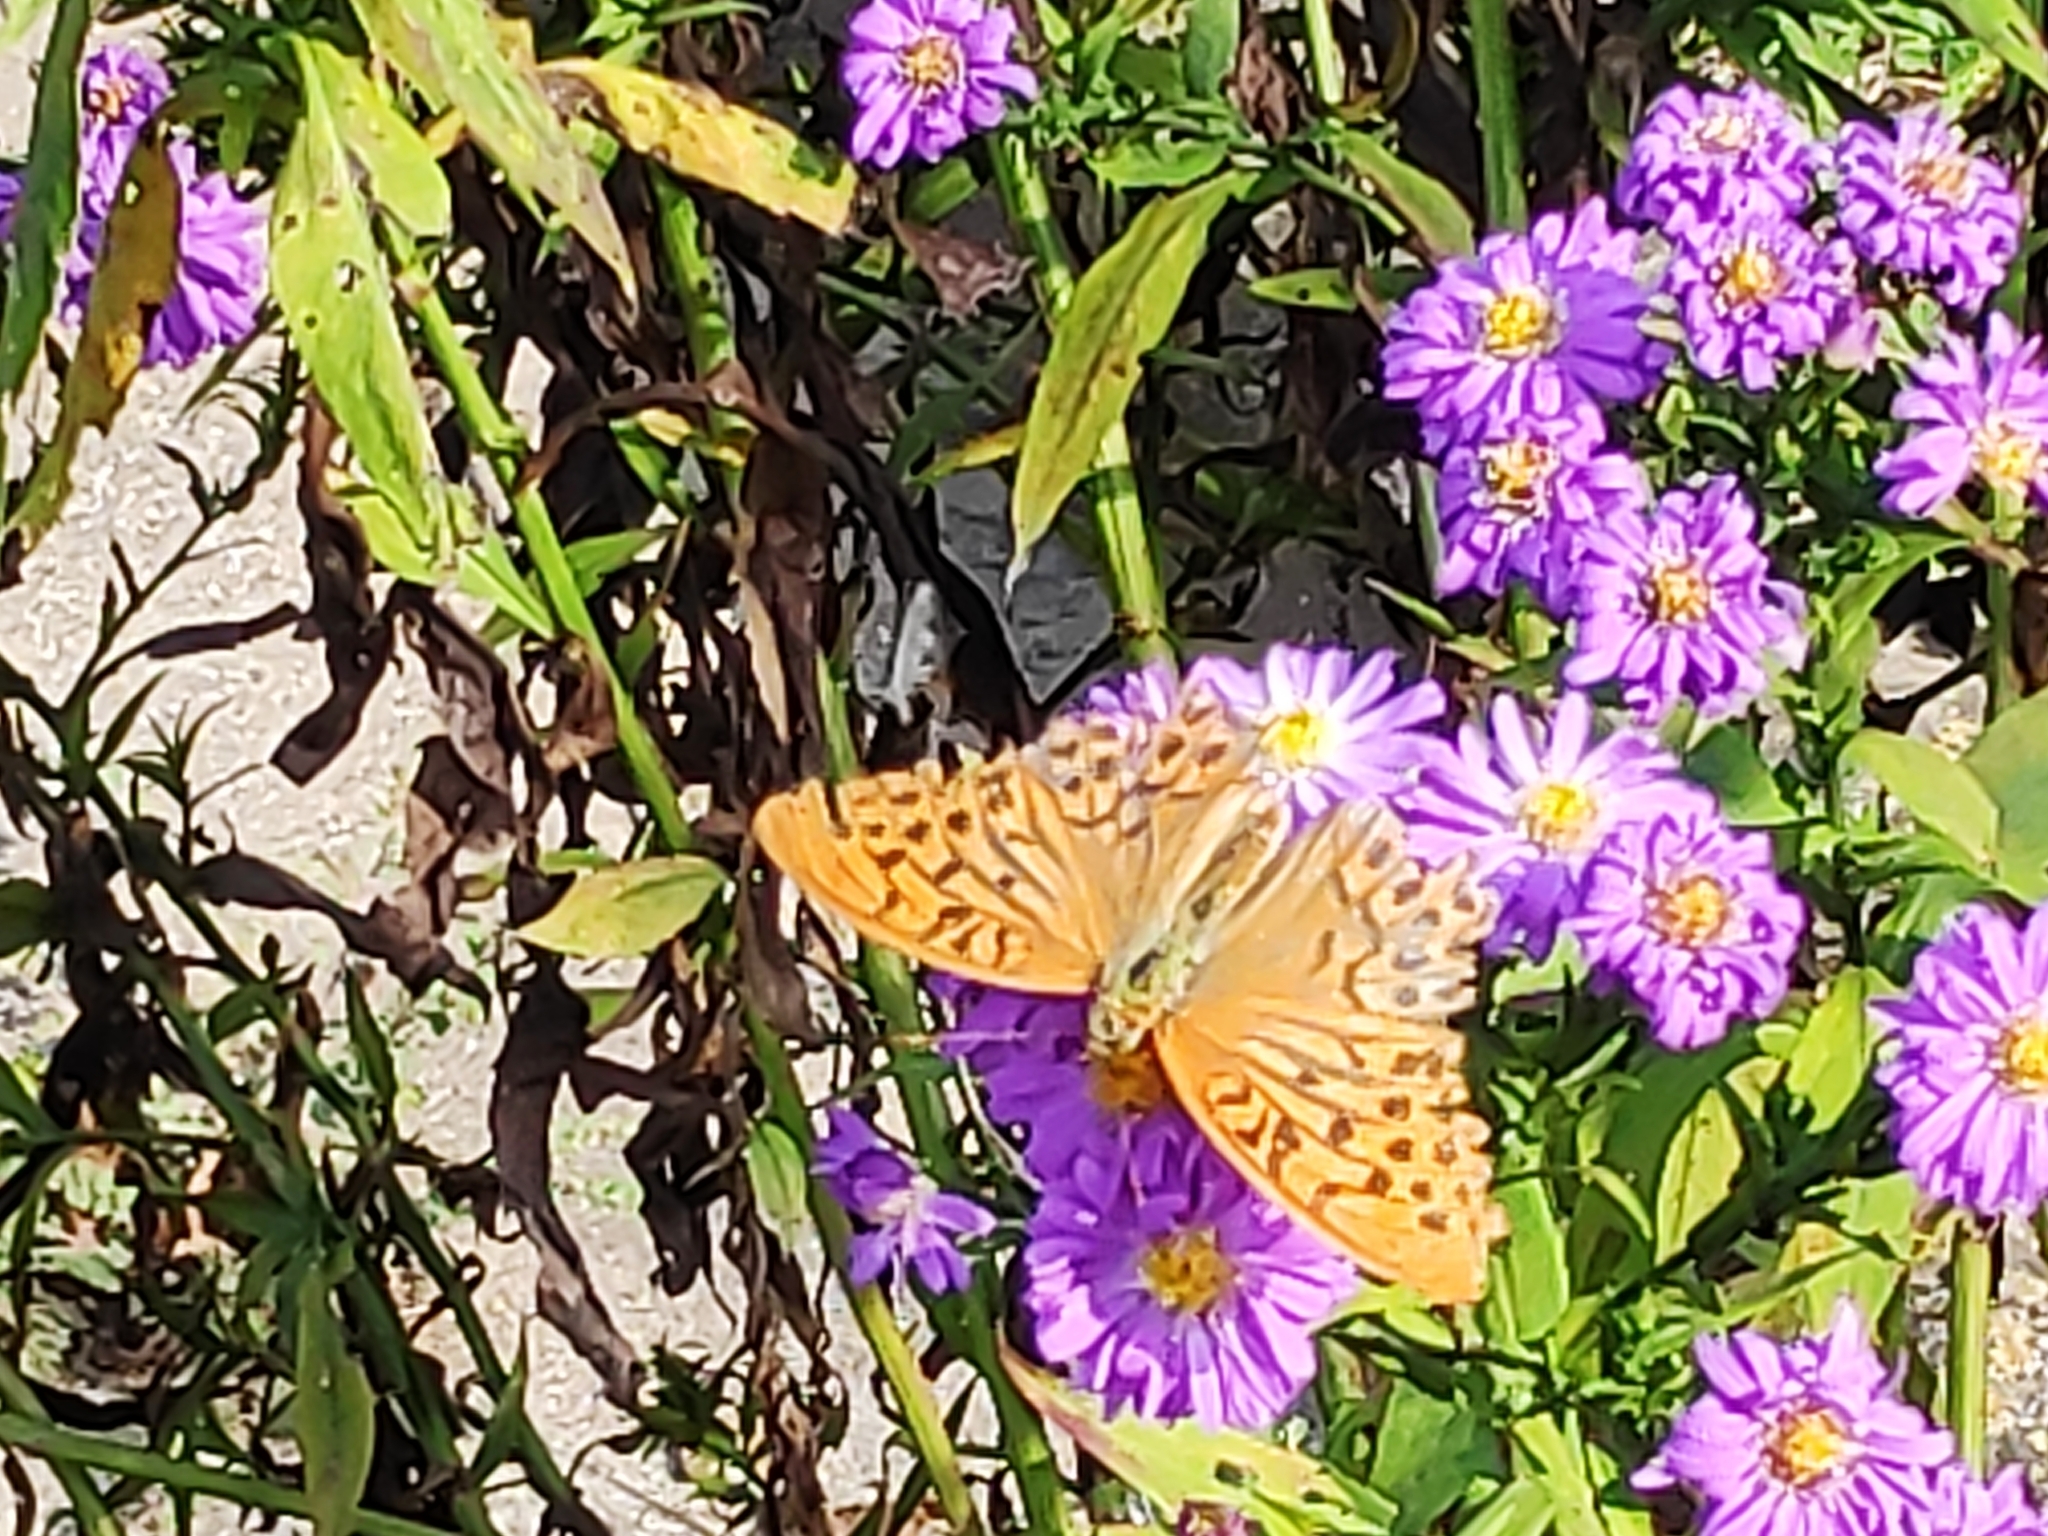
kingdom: Animalia
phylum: Arthropoda
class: Insecta
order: Lepidoptera
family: Nymphalidae
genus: Argynnis
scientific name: Argynnis paphia
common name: Silver-washed fritillary
